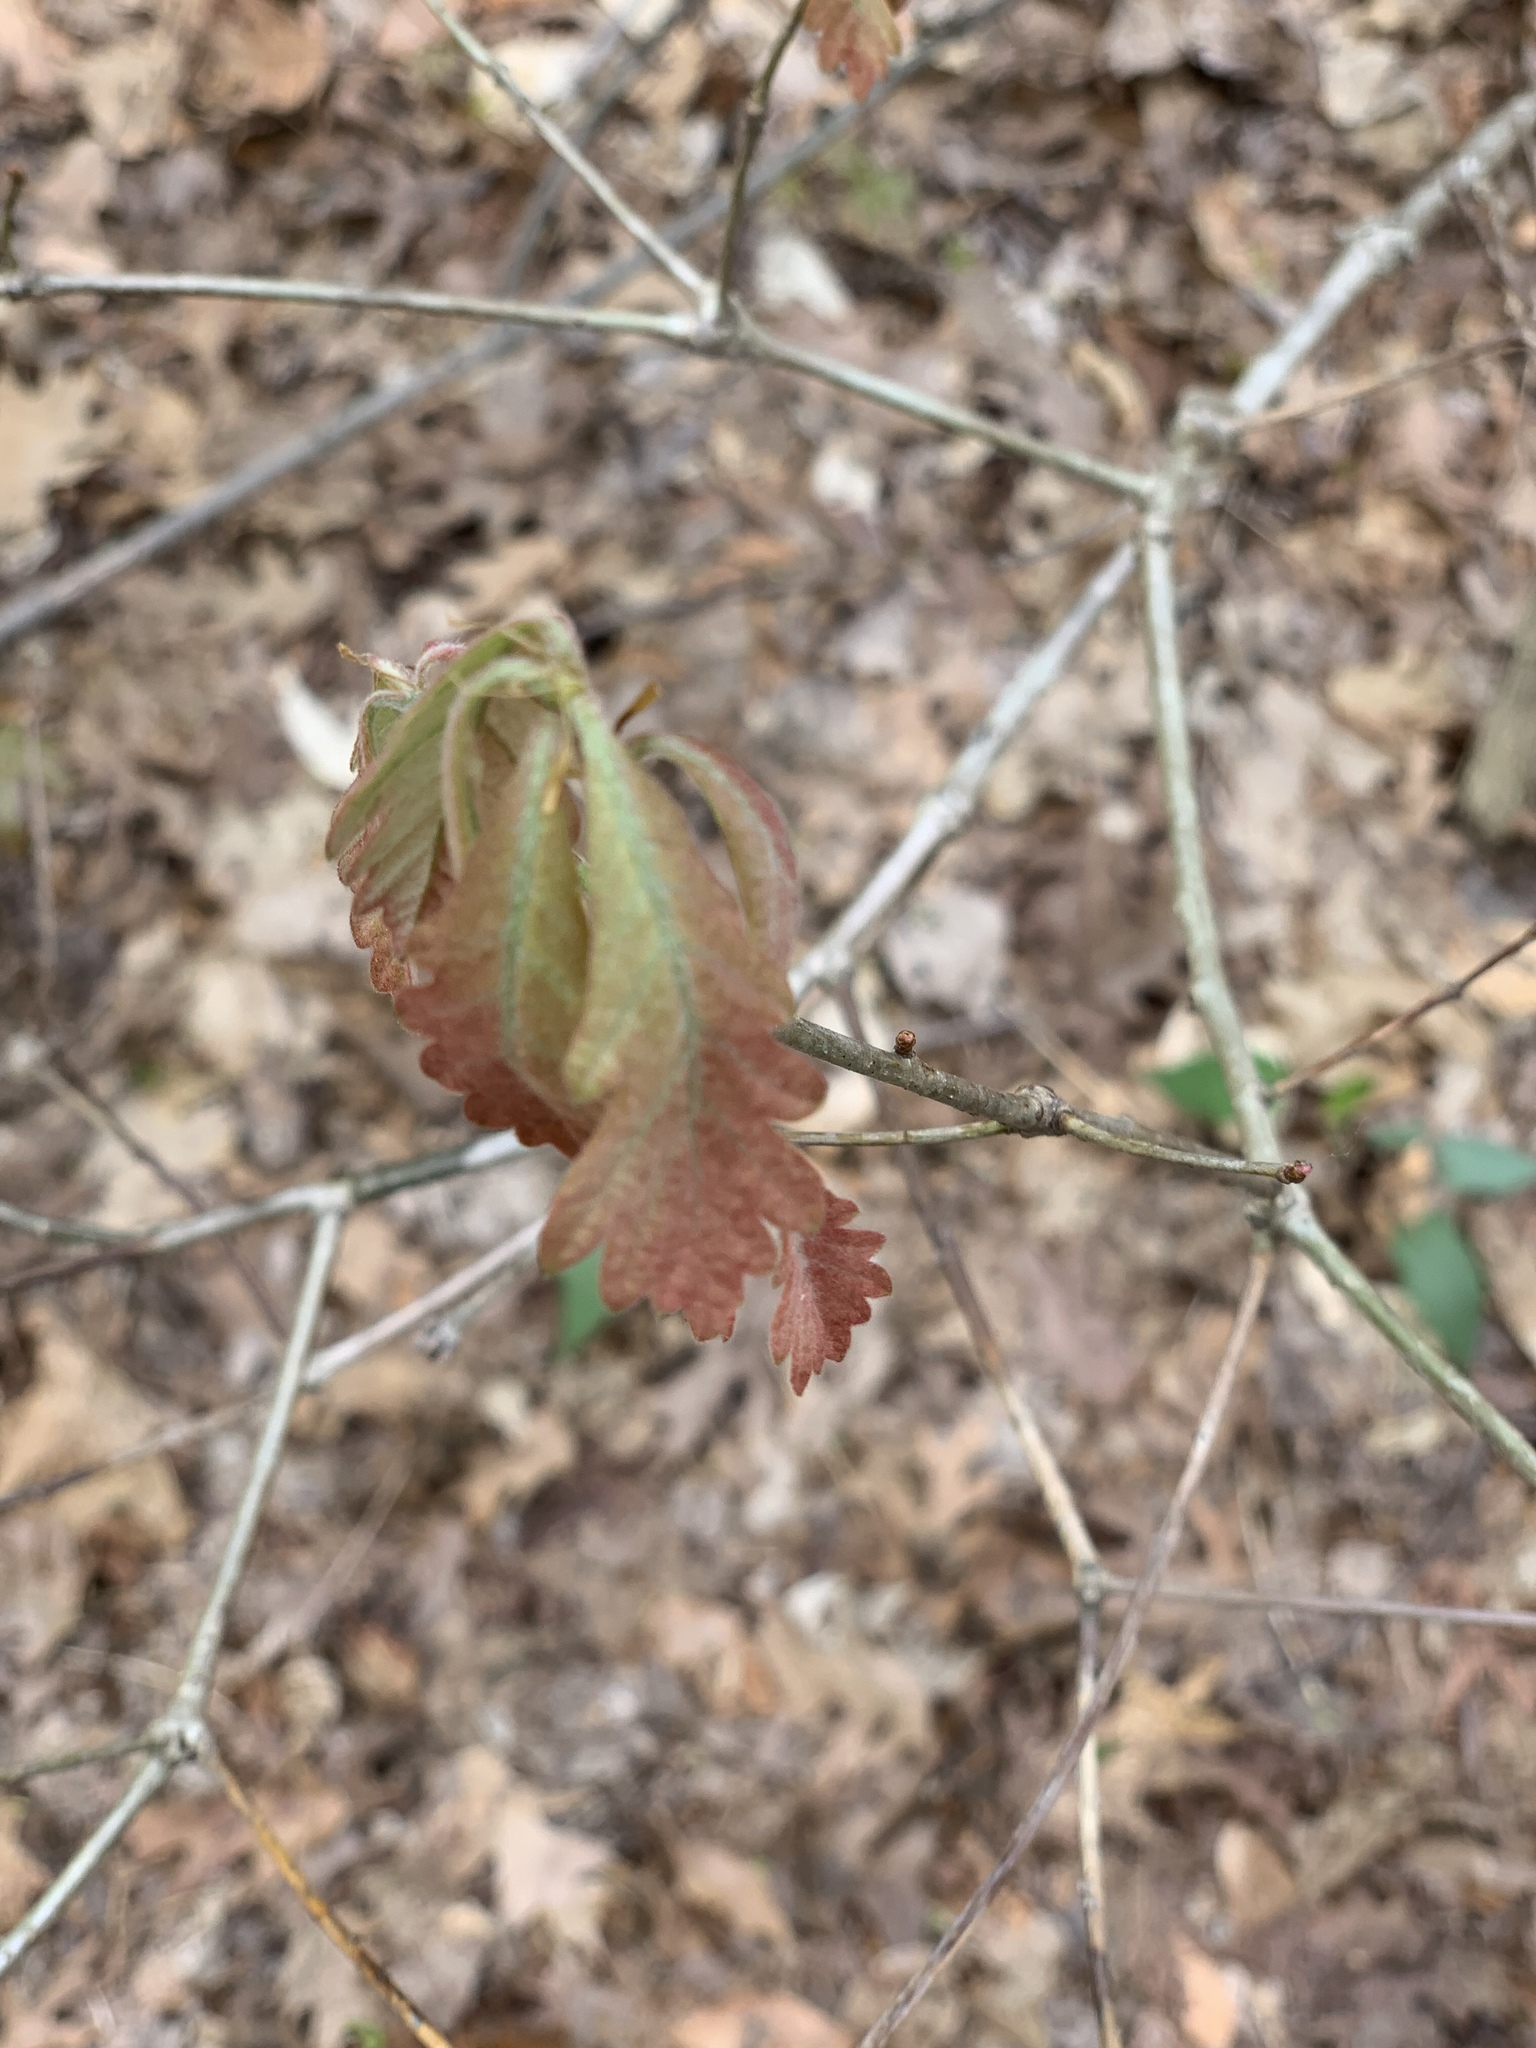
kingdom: Plantae
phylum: Tracheophyta
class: Magnoliopsida
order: Fagales
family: Fagaceae
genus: Quercus
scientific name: Quercus alba
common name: White oak
